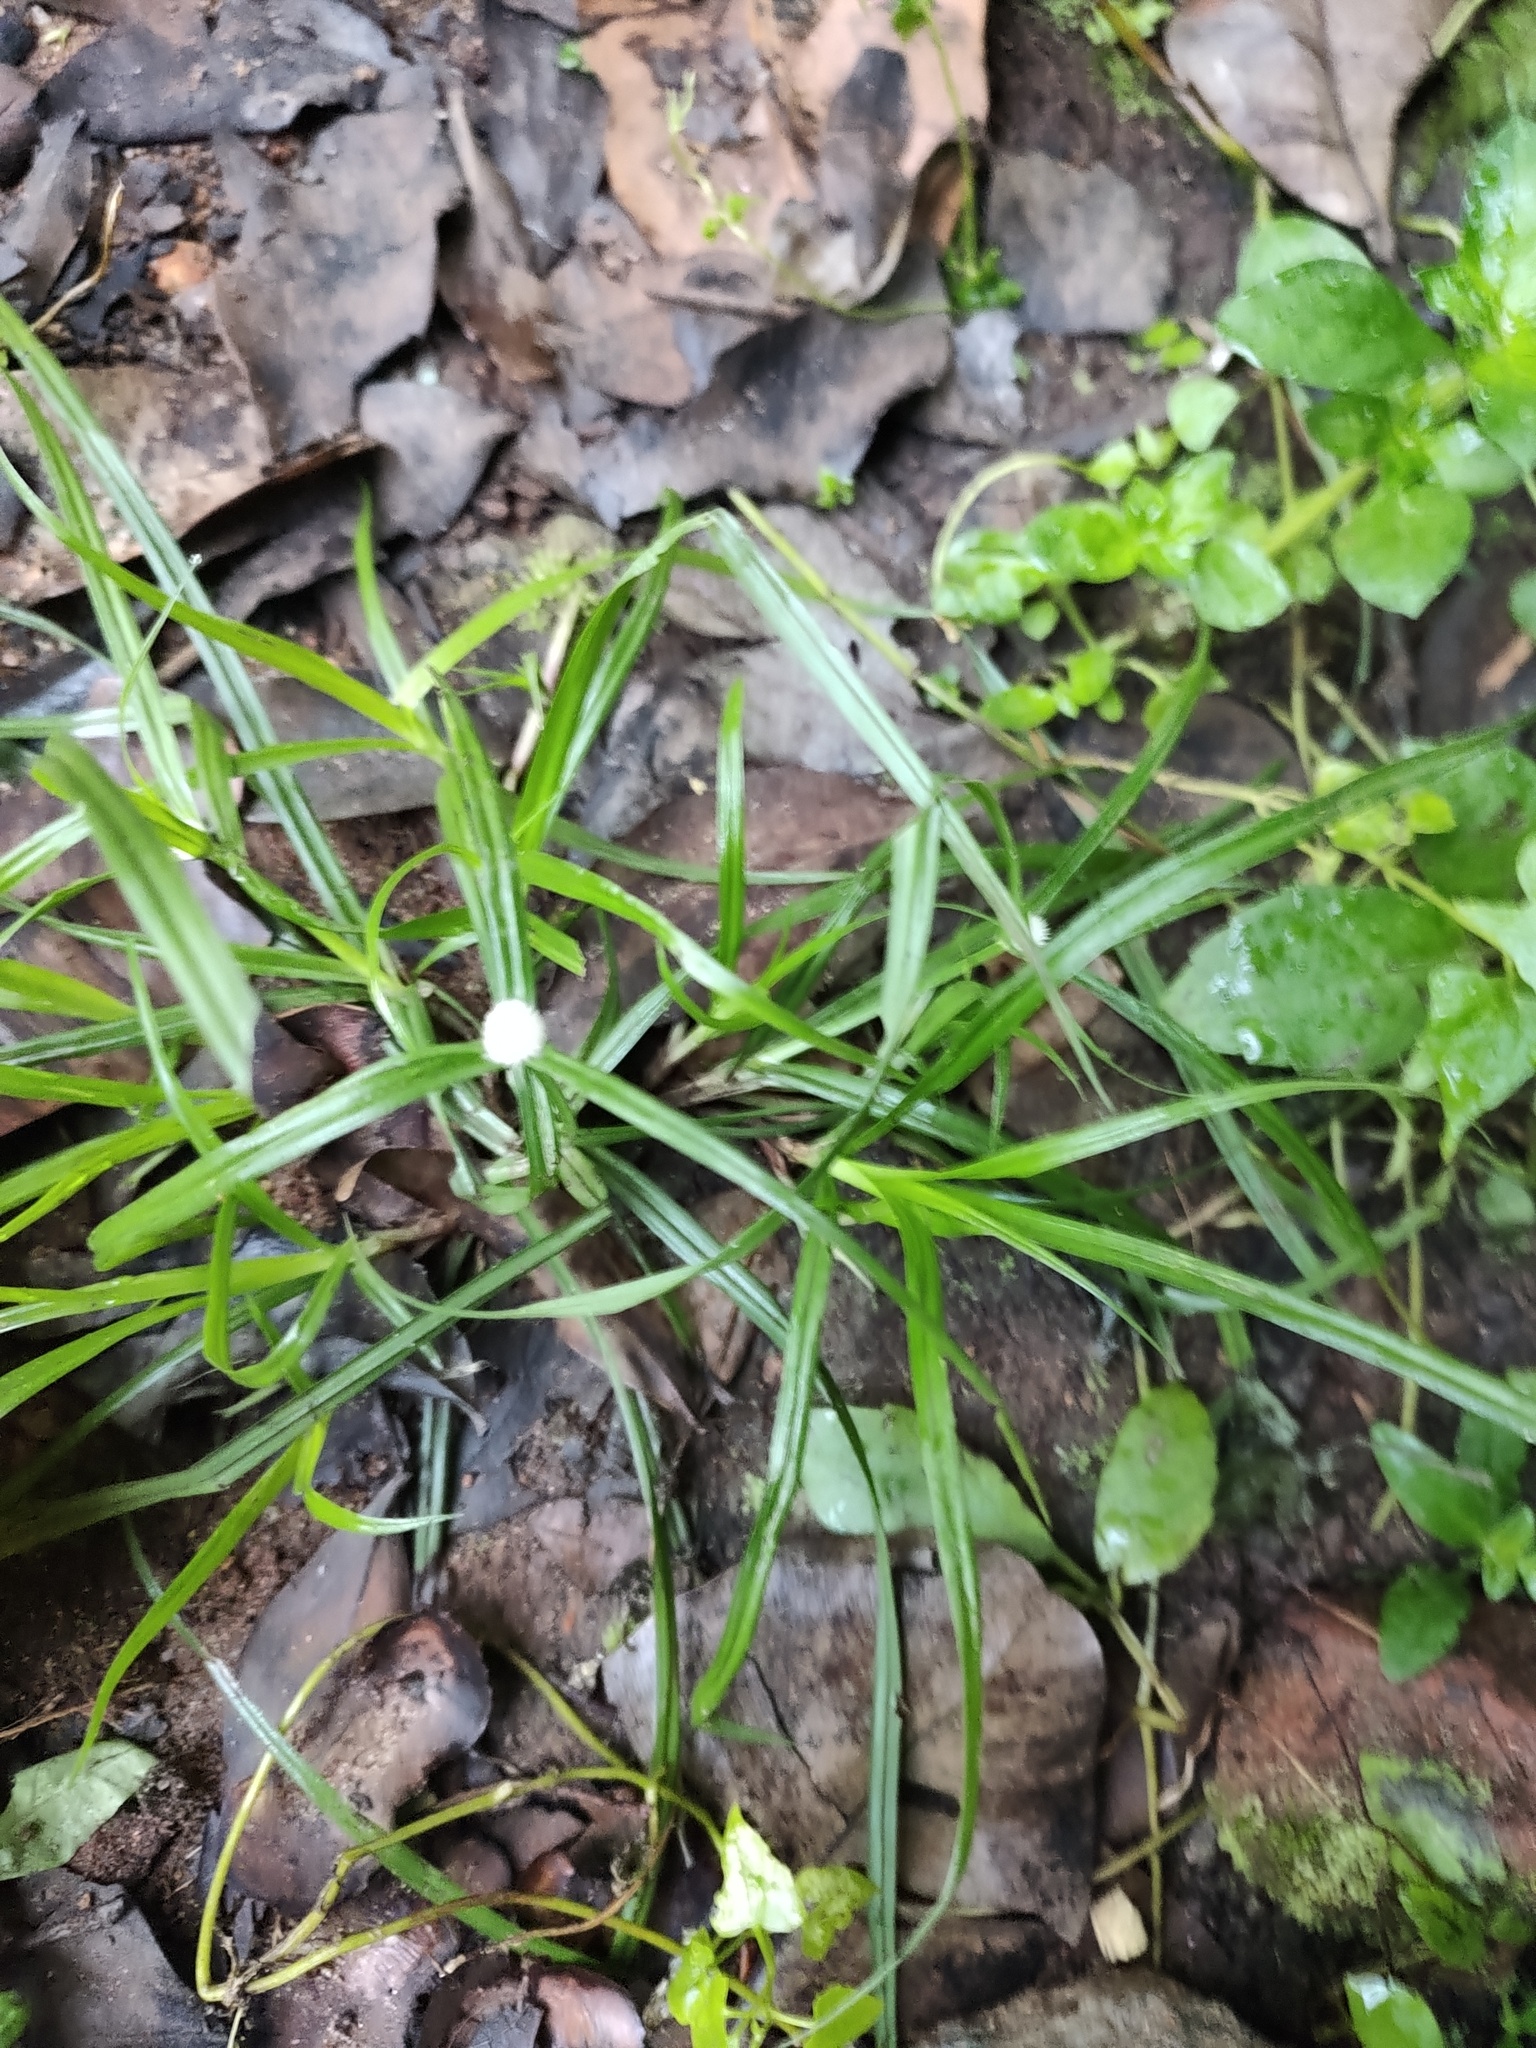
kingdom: Plantae
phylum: Tracheophyta
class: Liliopsida
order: Poales
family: Cyperaceae
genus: Cyperus
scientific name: Cyperus mindorensis
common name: Flatsedge
